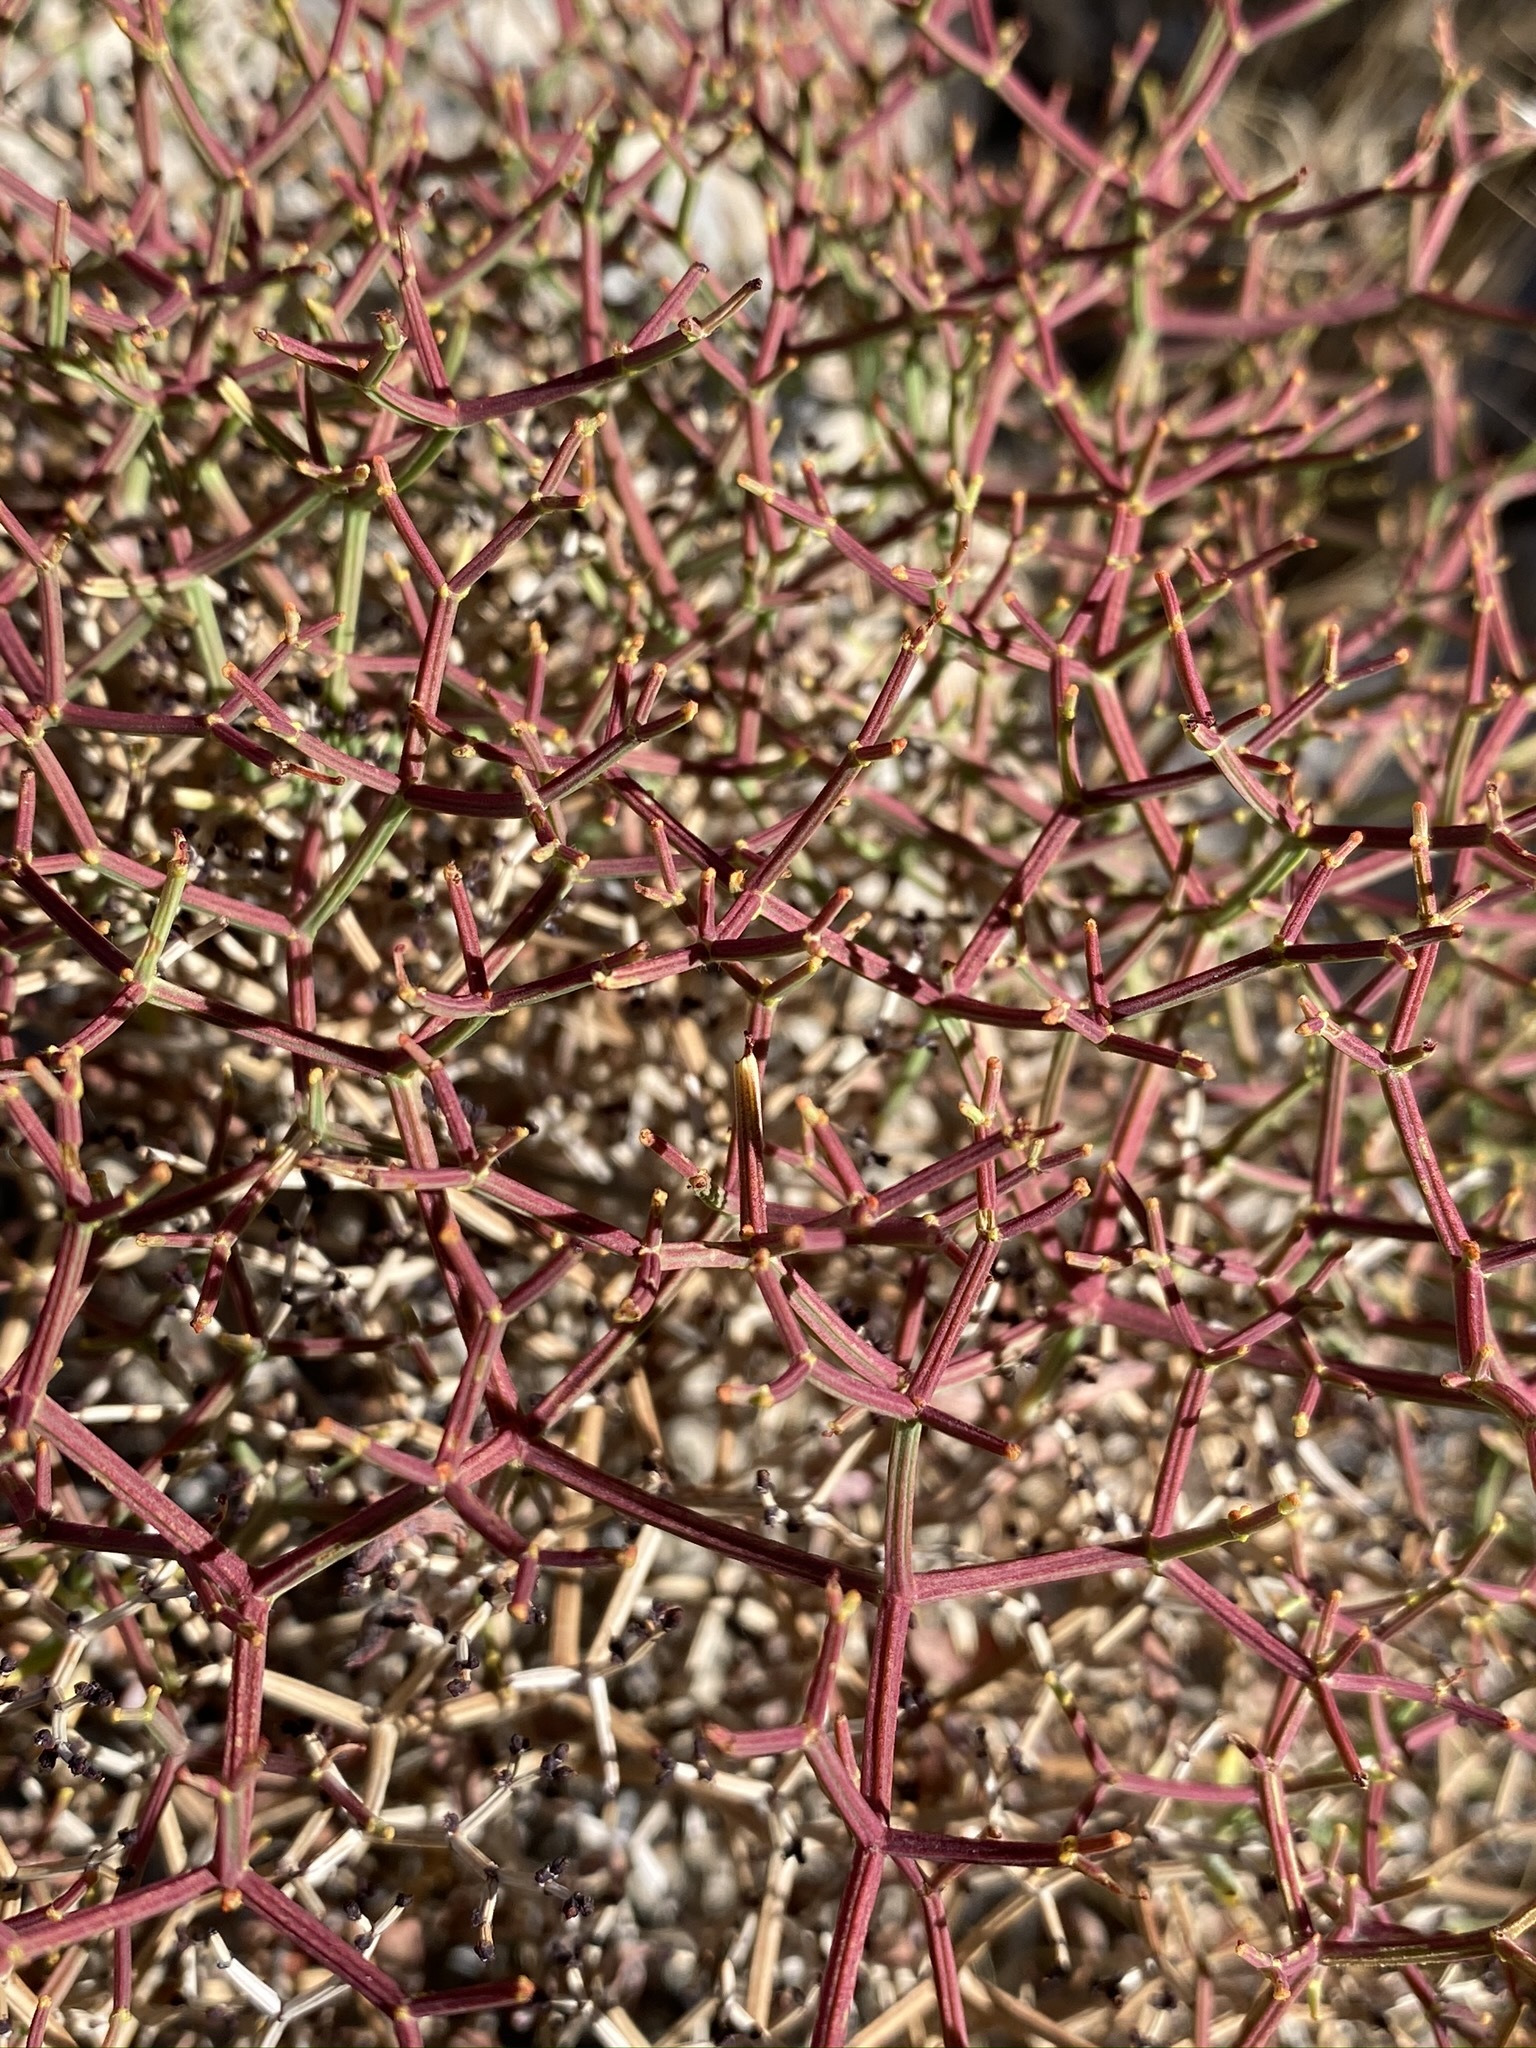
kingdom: Plantae
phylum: Tracheophyta
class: Magnoliopsida
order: Caryophyllales
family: Polygonaceae
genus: Eriogonum
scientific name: Eriogonum heermannii
